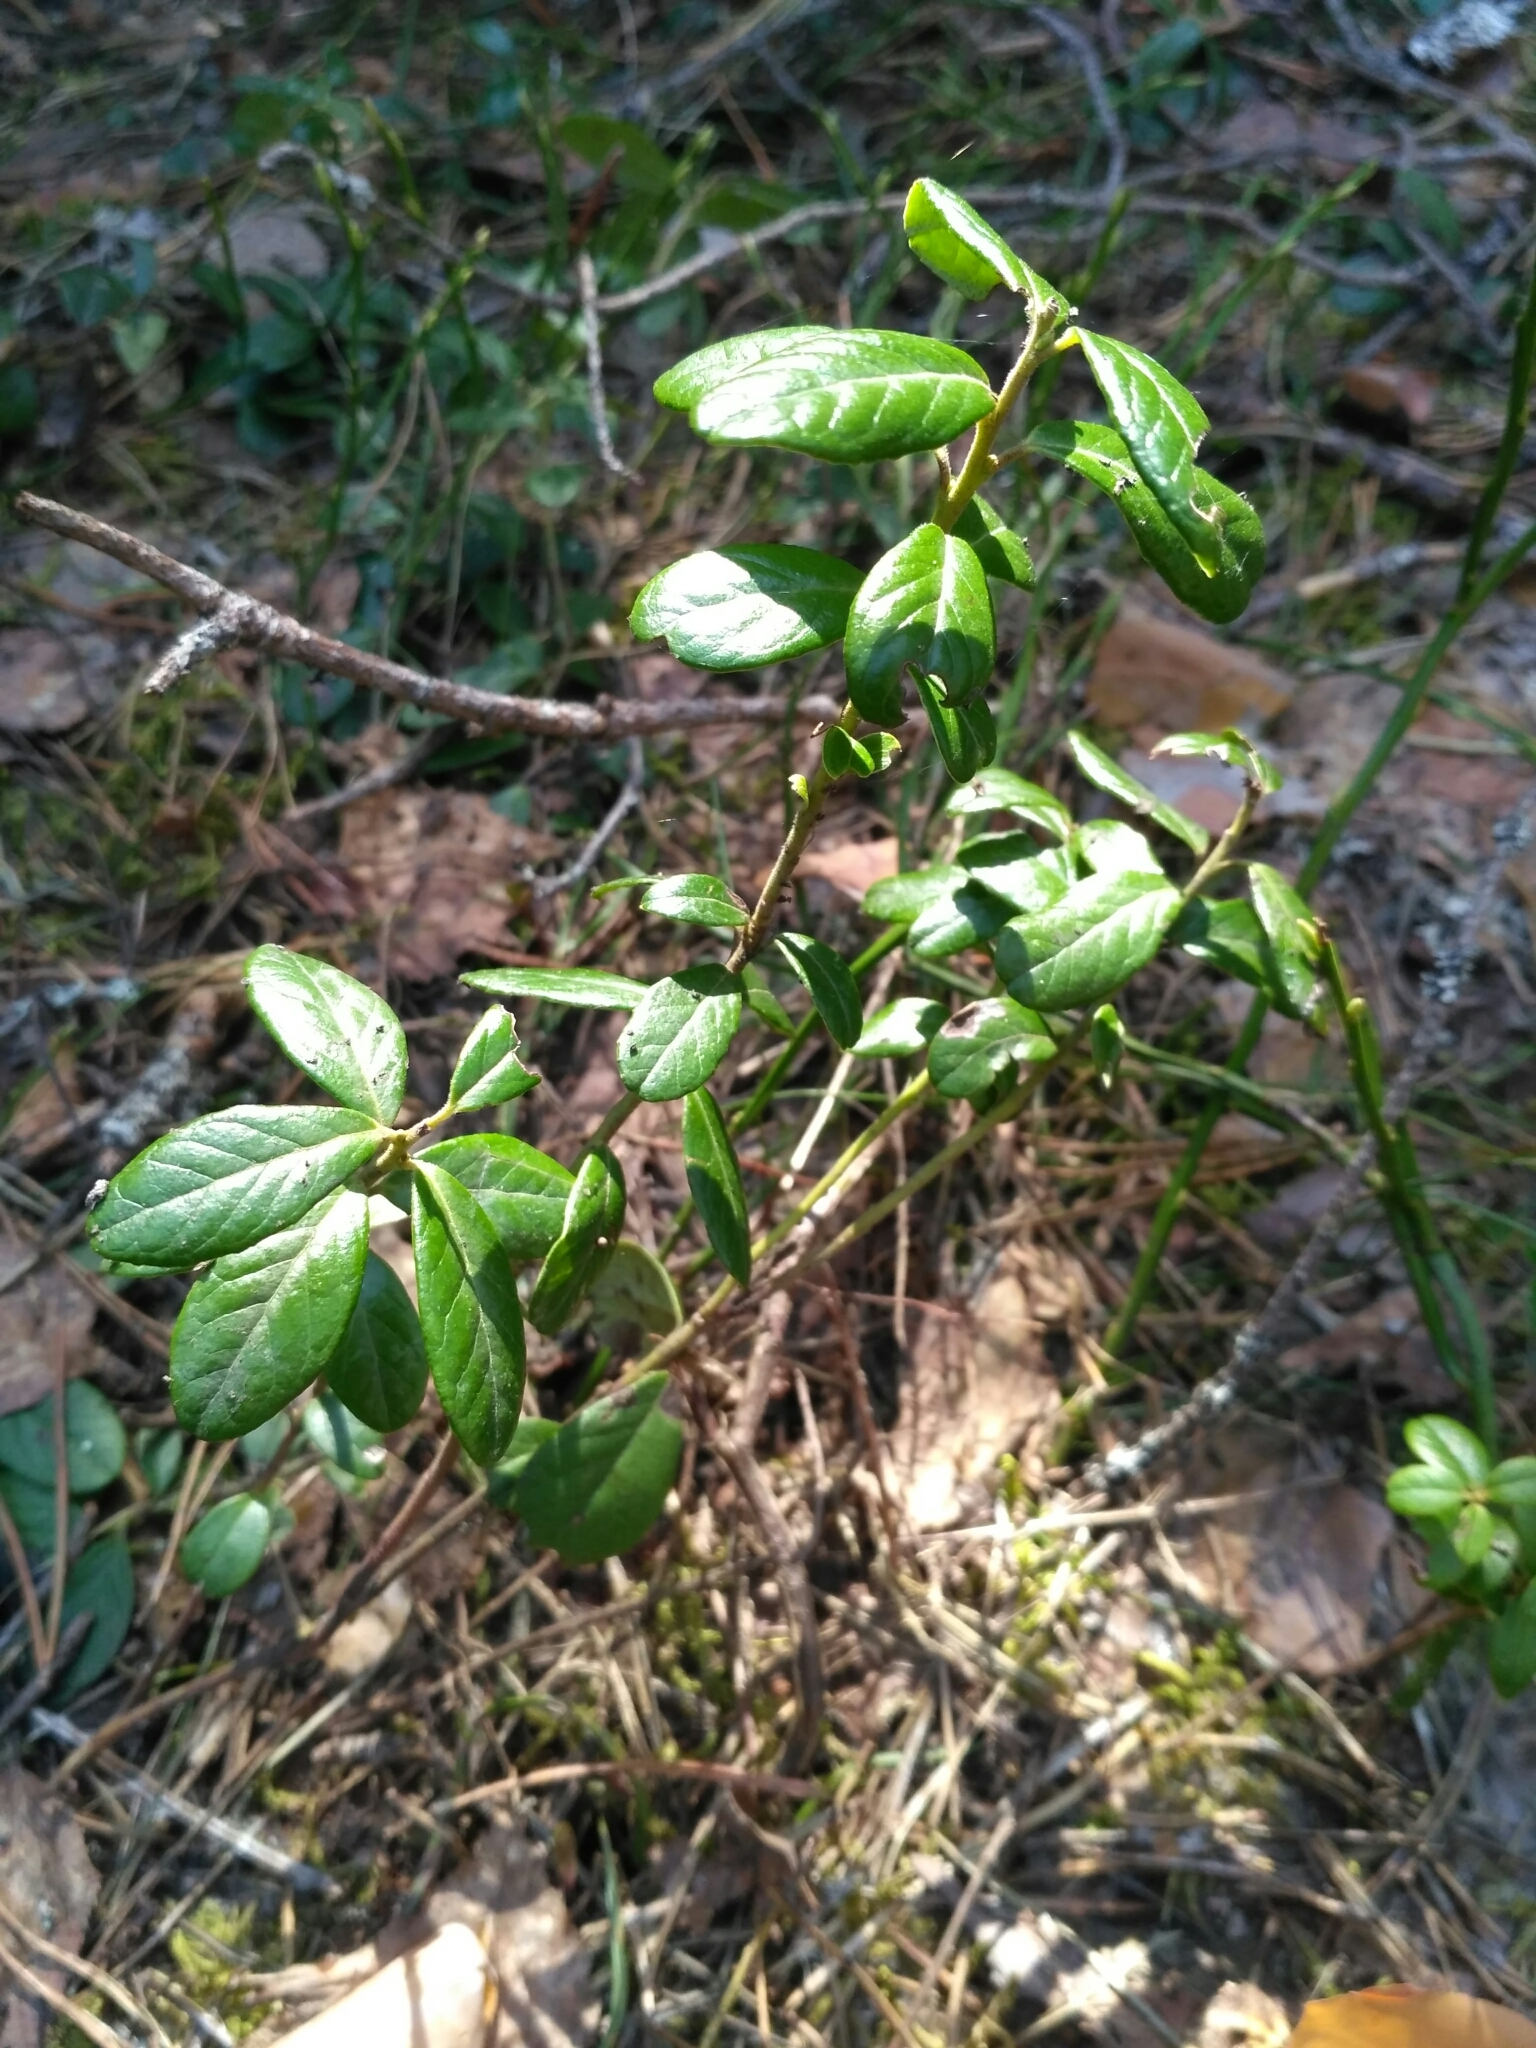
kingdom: Plantae
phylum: Tracheophyta
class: Magnoliopsida
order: Ericales
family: Ericaceae
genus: Vaccinium
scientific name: Vaccinium vitis-idaea
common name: Cowberry
